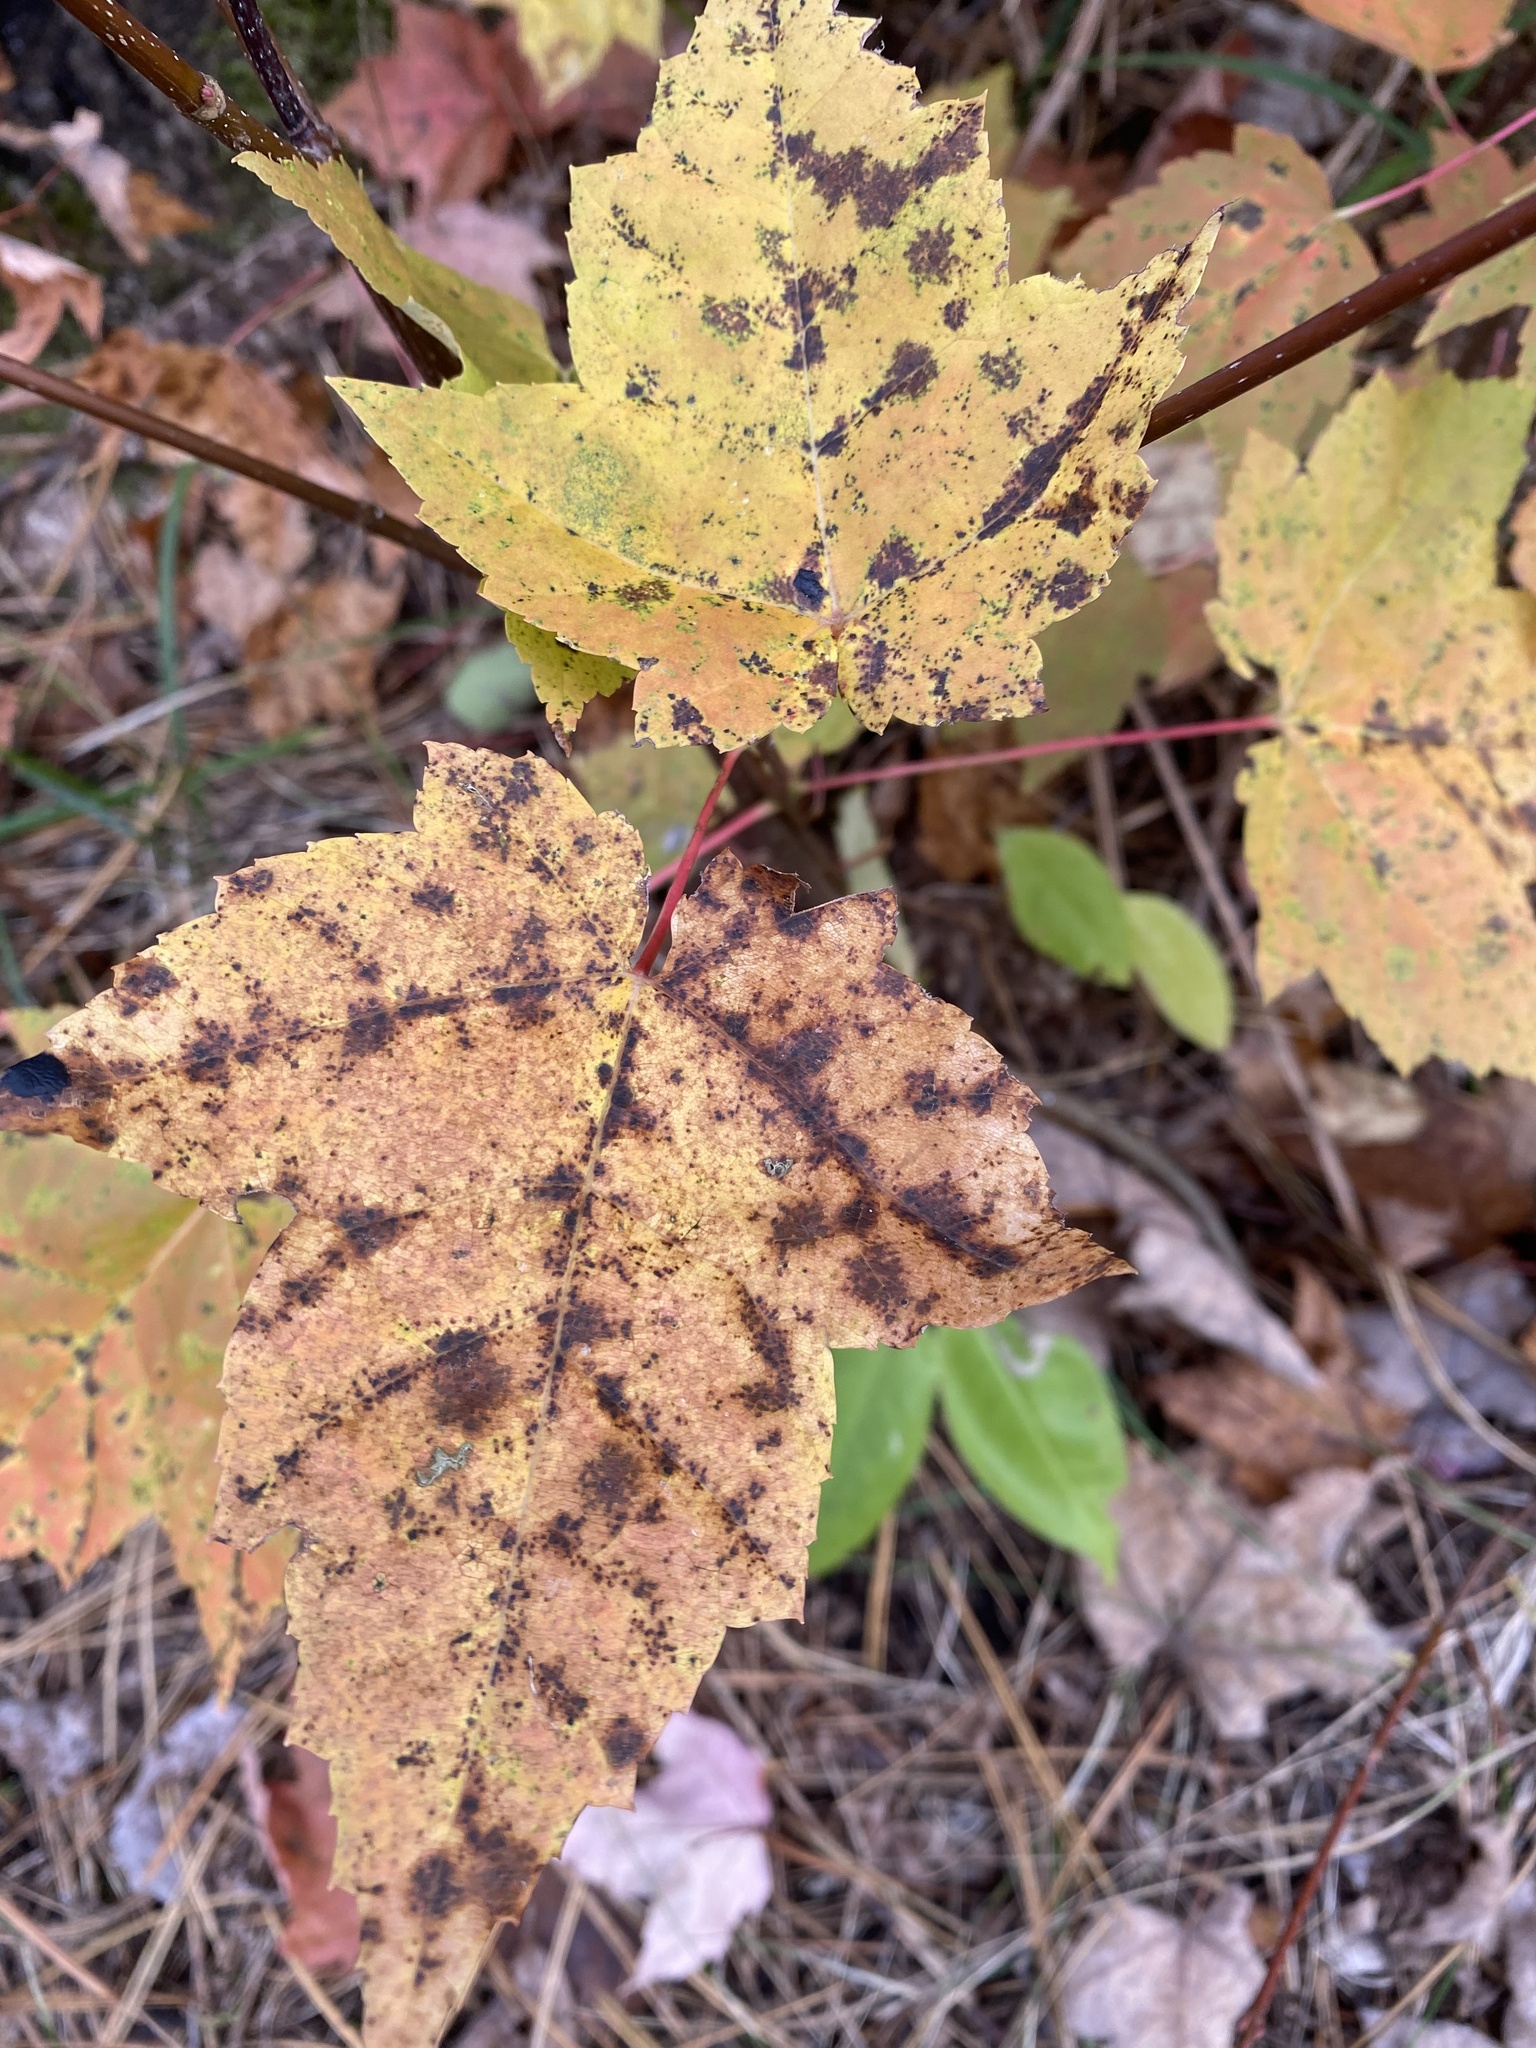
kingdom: Plantae
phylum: Tracheophyta
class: Magnoliopsida
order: Sapindales
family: Sapindaceae
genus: Acer
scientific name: Acer rubrum
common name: Red maple
